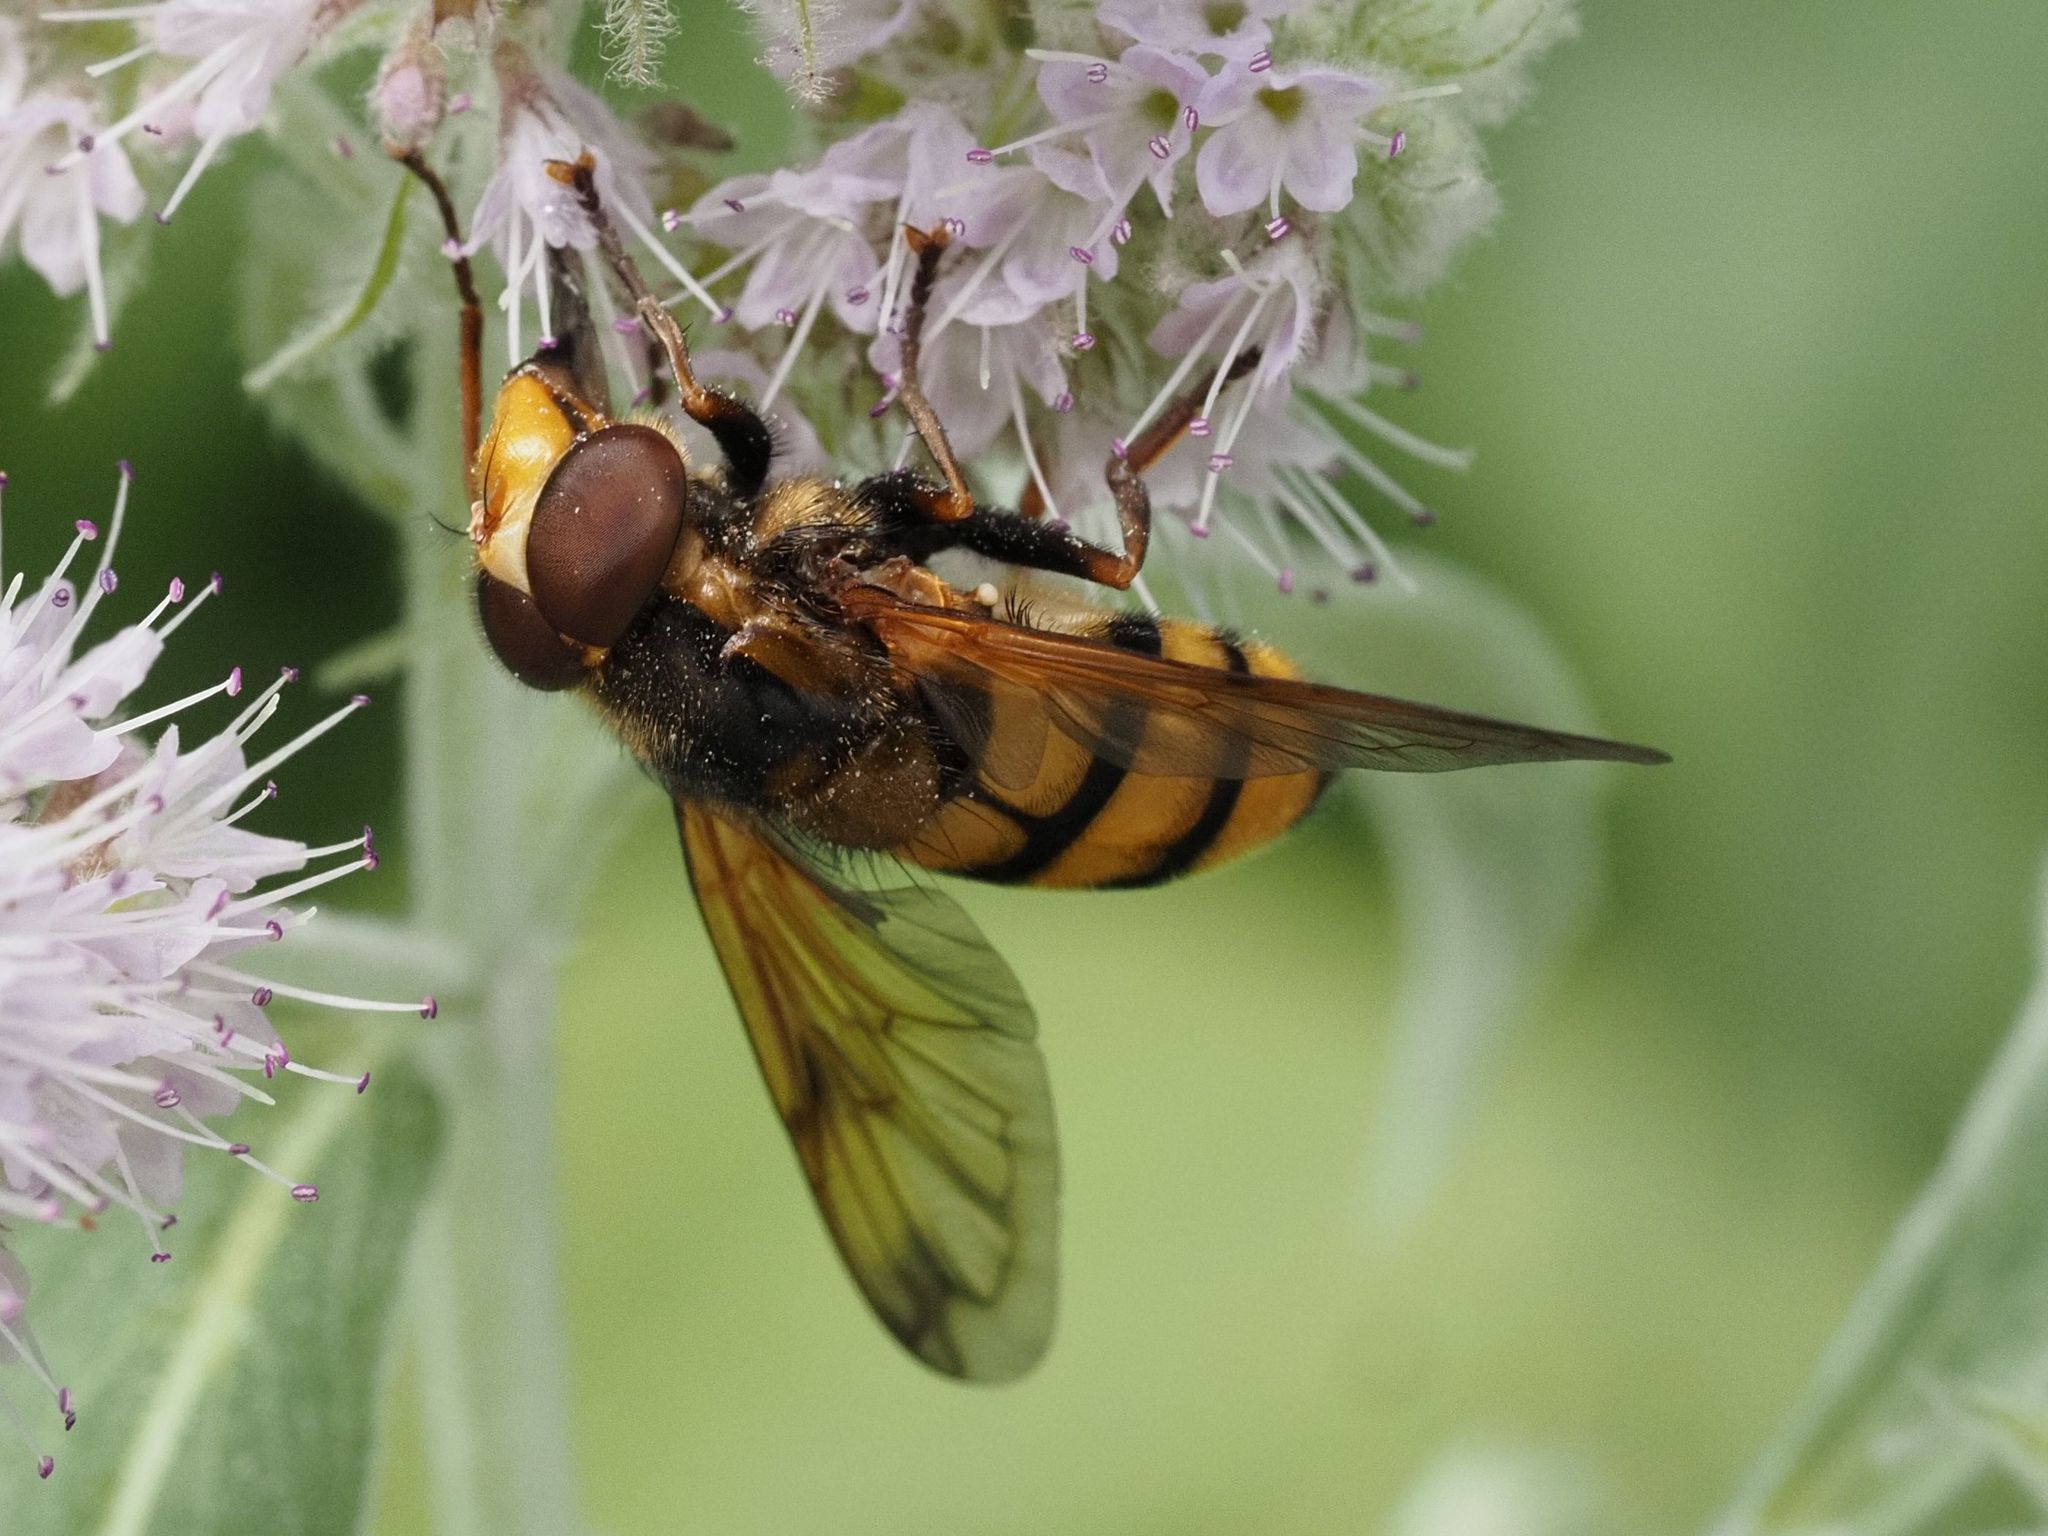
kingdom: Animalia
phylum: Arthropoda
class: Insecta
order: Diptera
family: Syrphidae
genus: Volucella
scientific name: Volucella inanis
